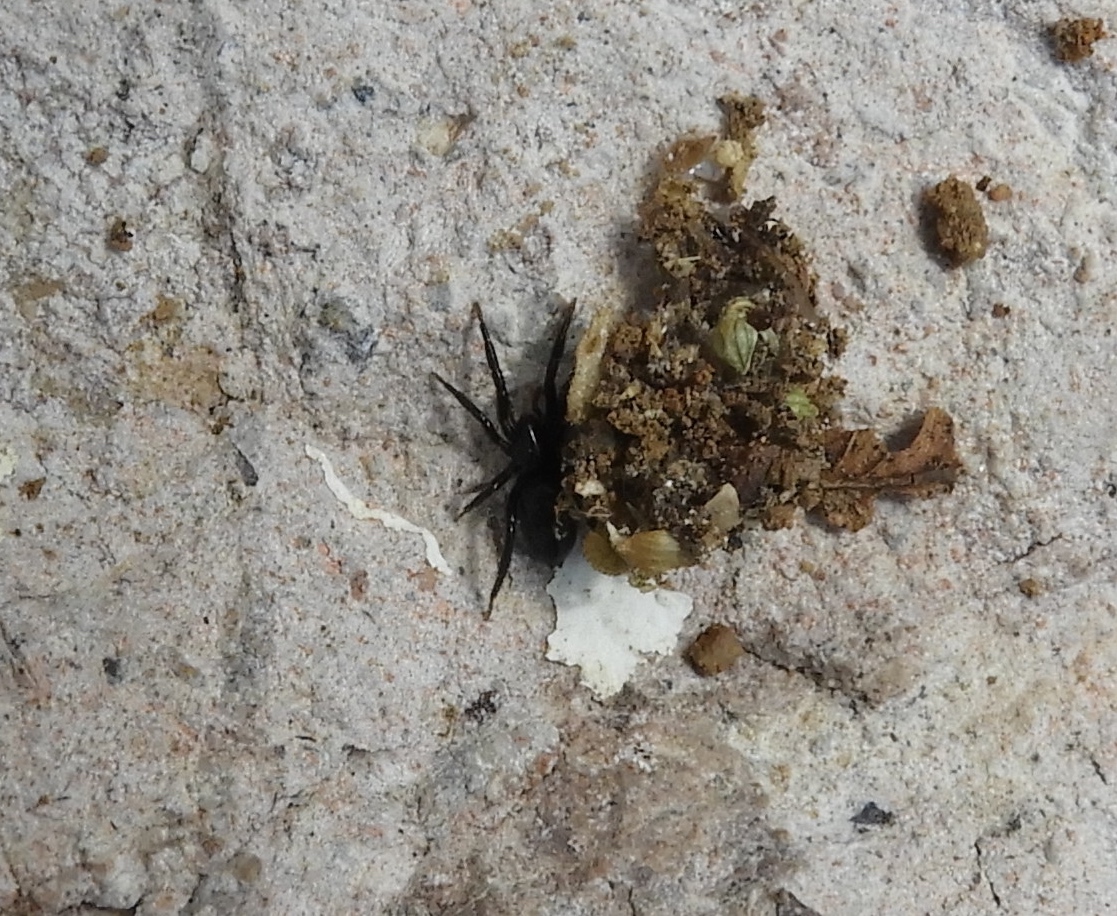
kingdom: Animalia
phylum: Arthropoda
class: Arachnida
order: Araneae
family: Gnaphosidae
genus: Zelotes
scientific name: Zelotes
